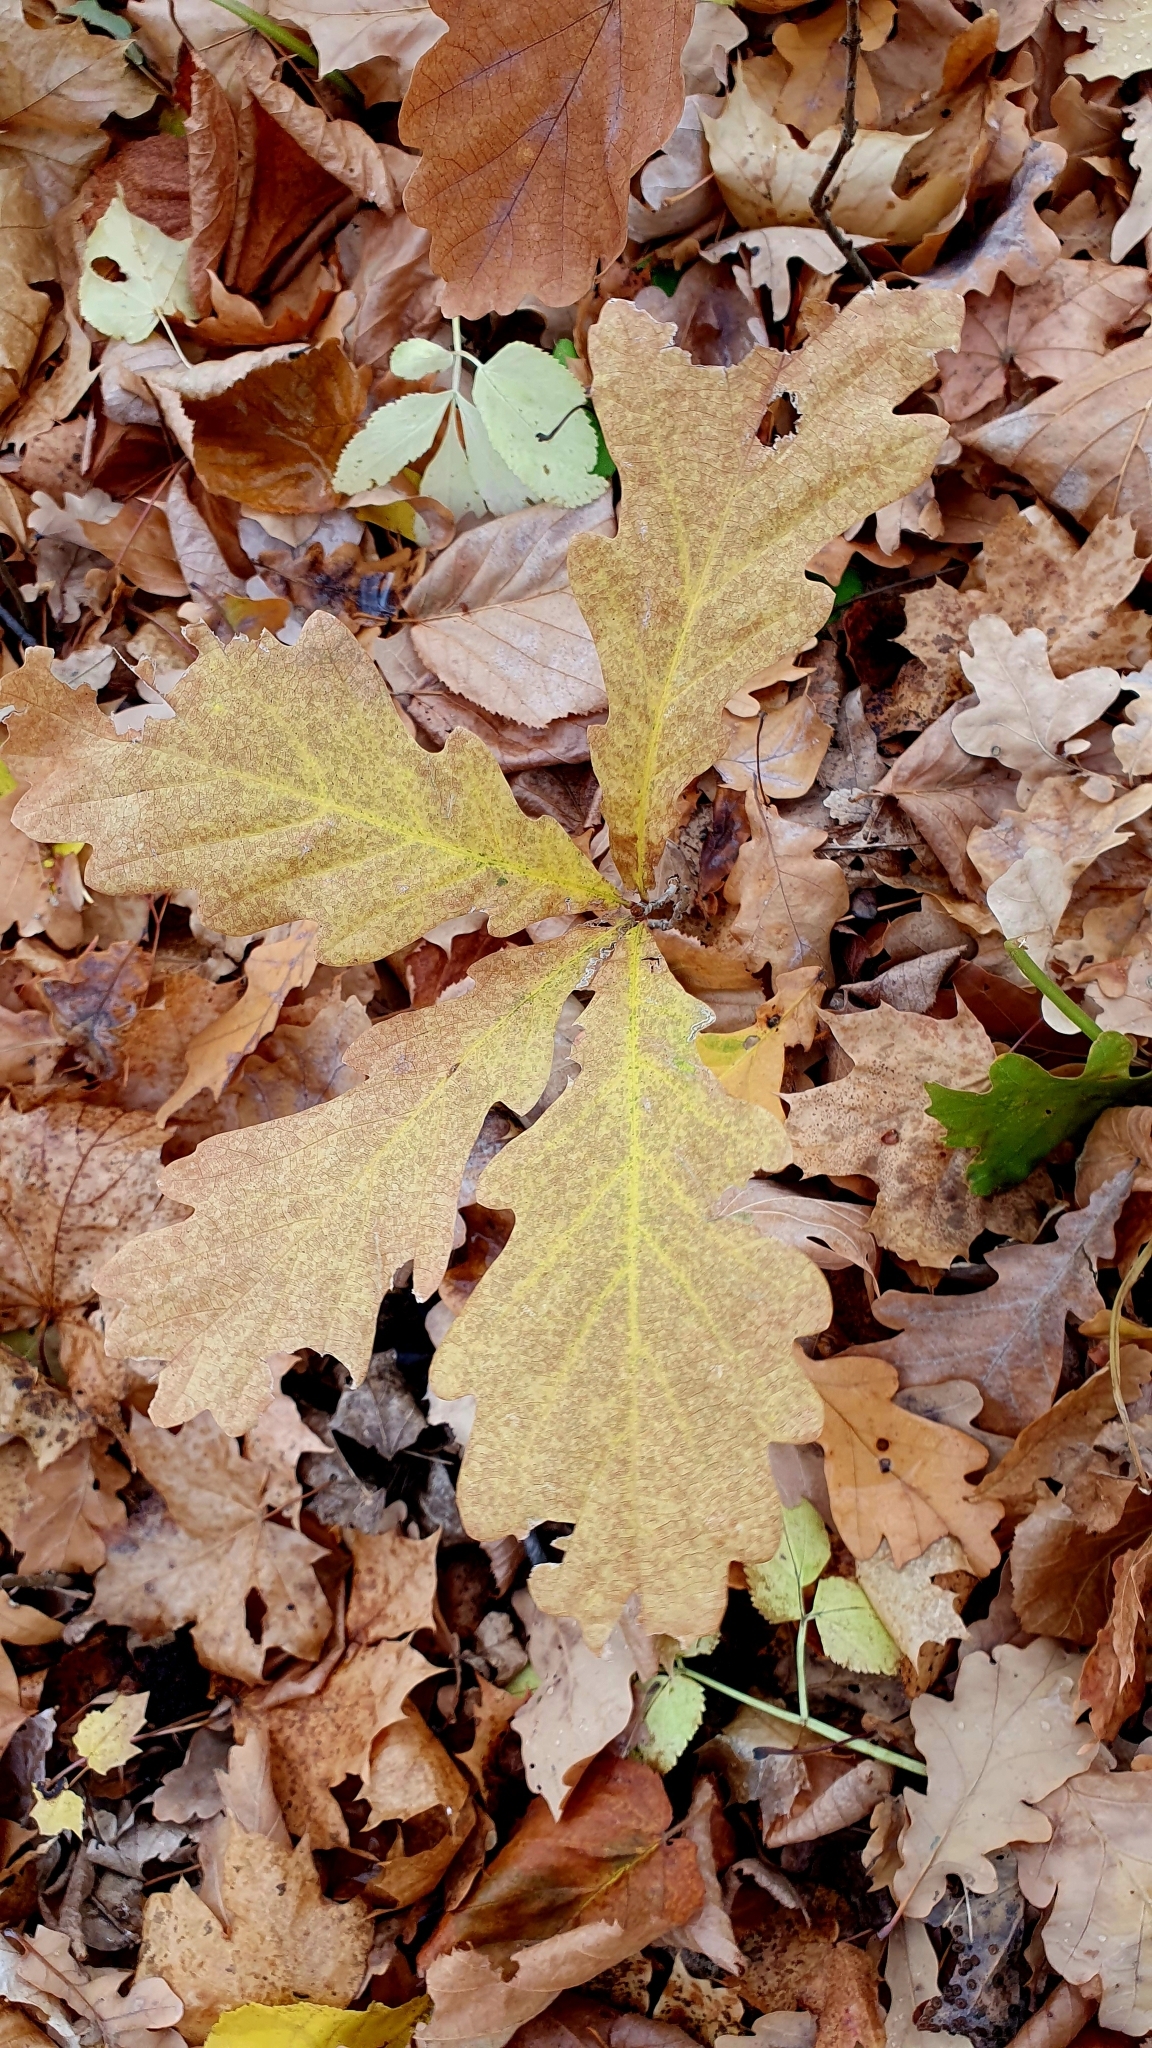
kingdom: Plantae
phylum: Tracheophyta
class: Magnoliopsida
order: Fagales
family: Fagaceae
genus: Quercus
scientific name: Quercus robur
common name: Pedunculate oak
